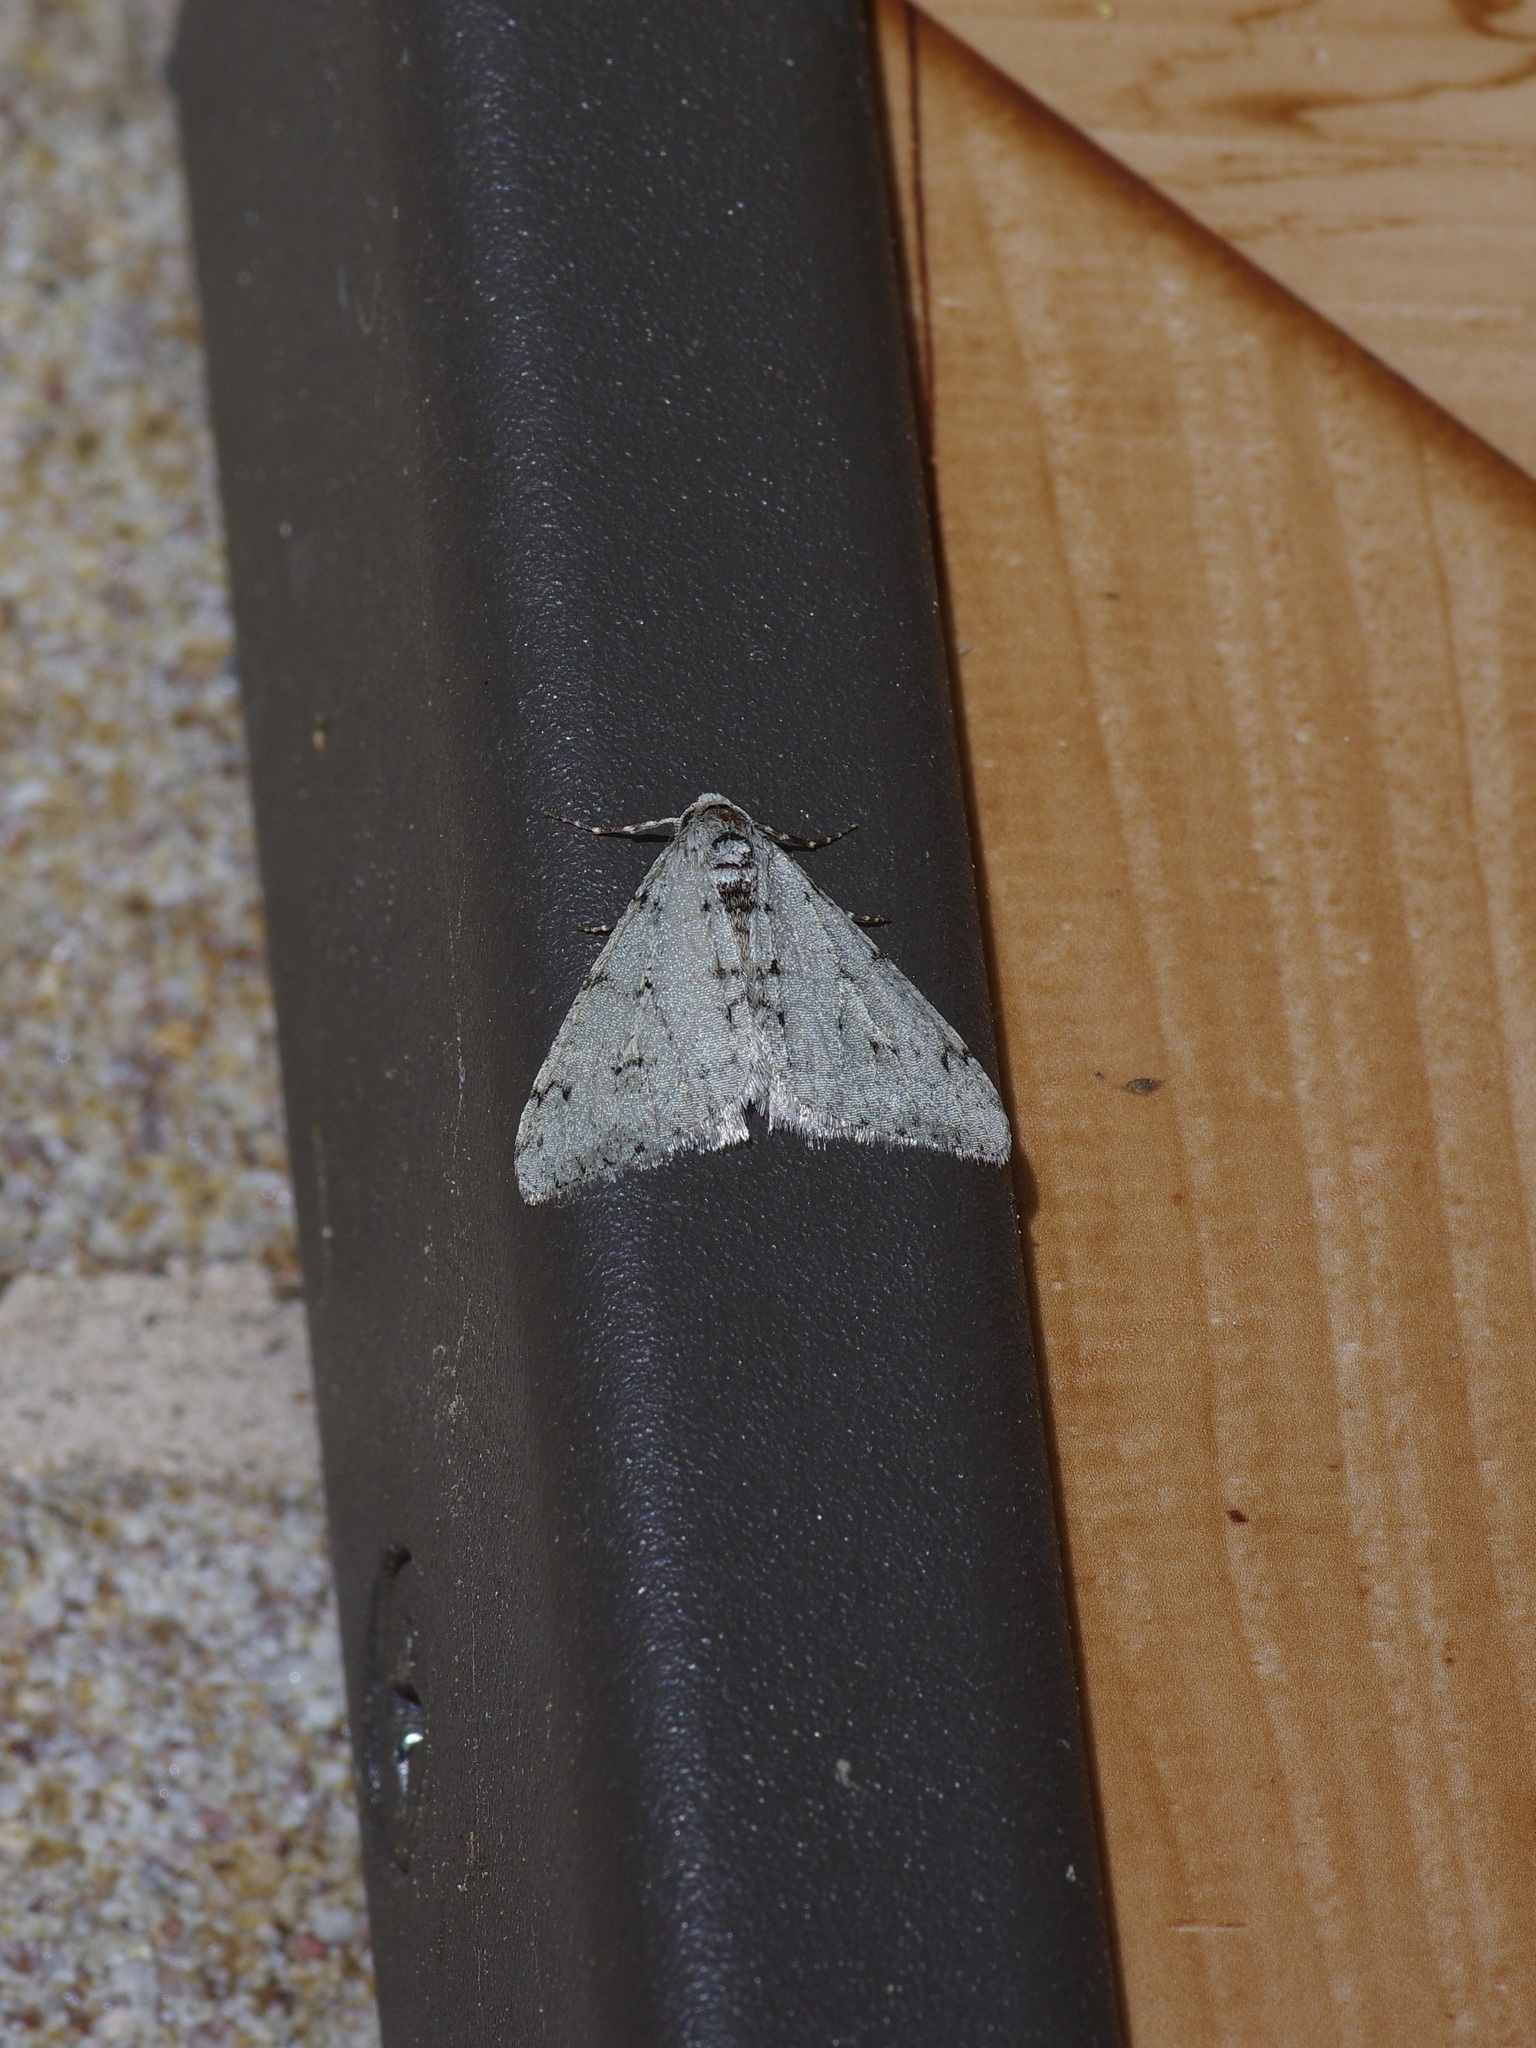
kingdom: Animalia
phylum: Arthropoda
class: Insecta
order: Lepidoptera
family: Geometridae
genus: Phigalia
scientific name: Phigalia strigataria
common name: Small phigalia
